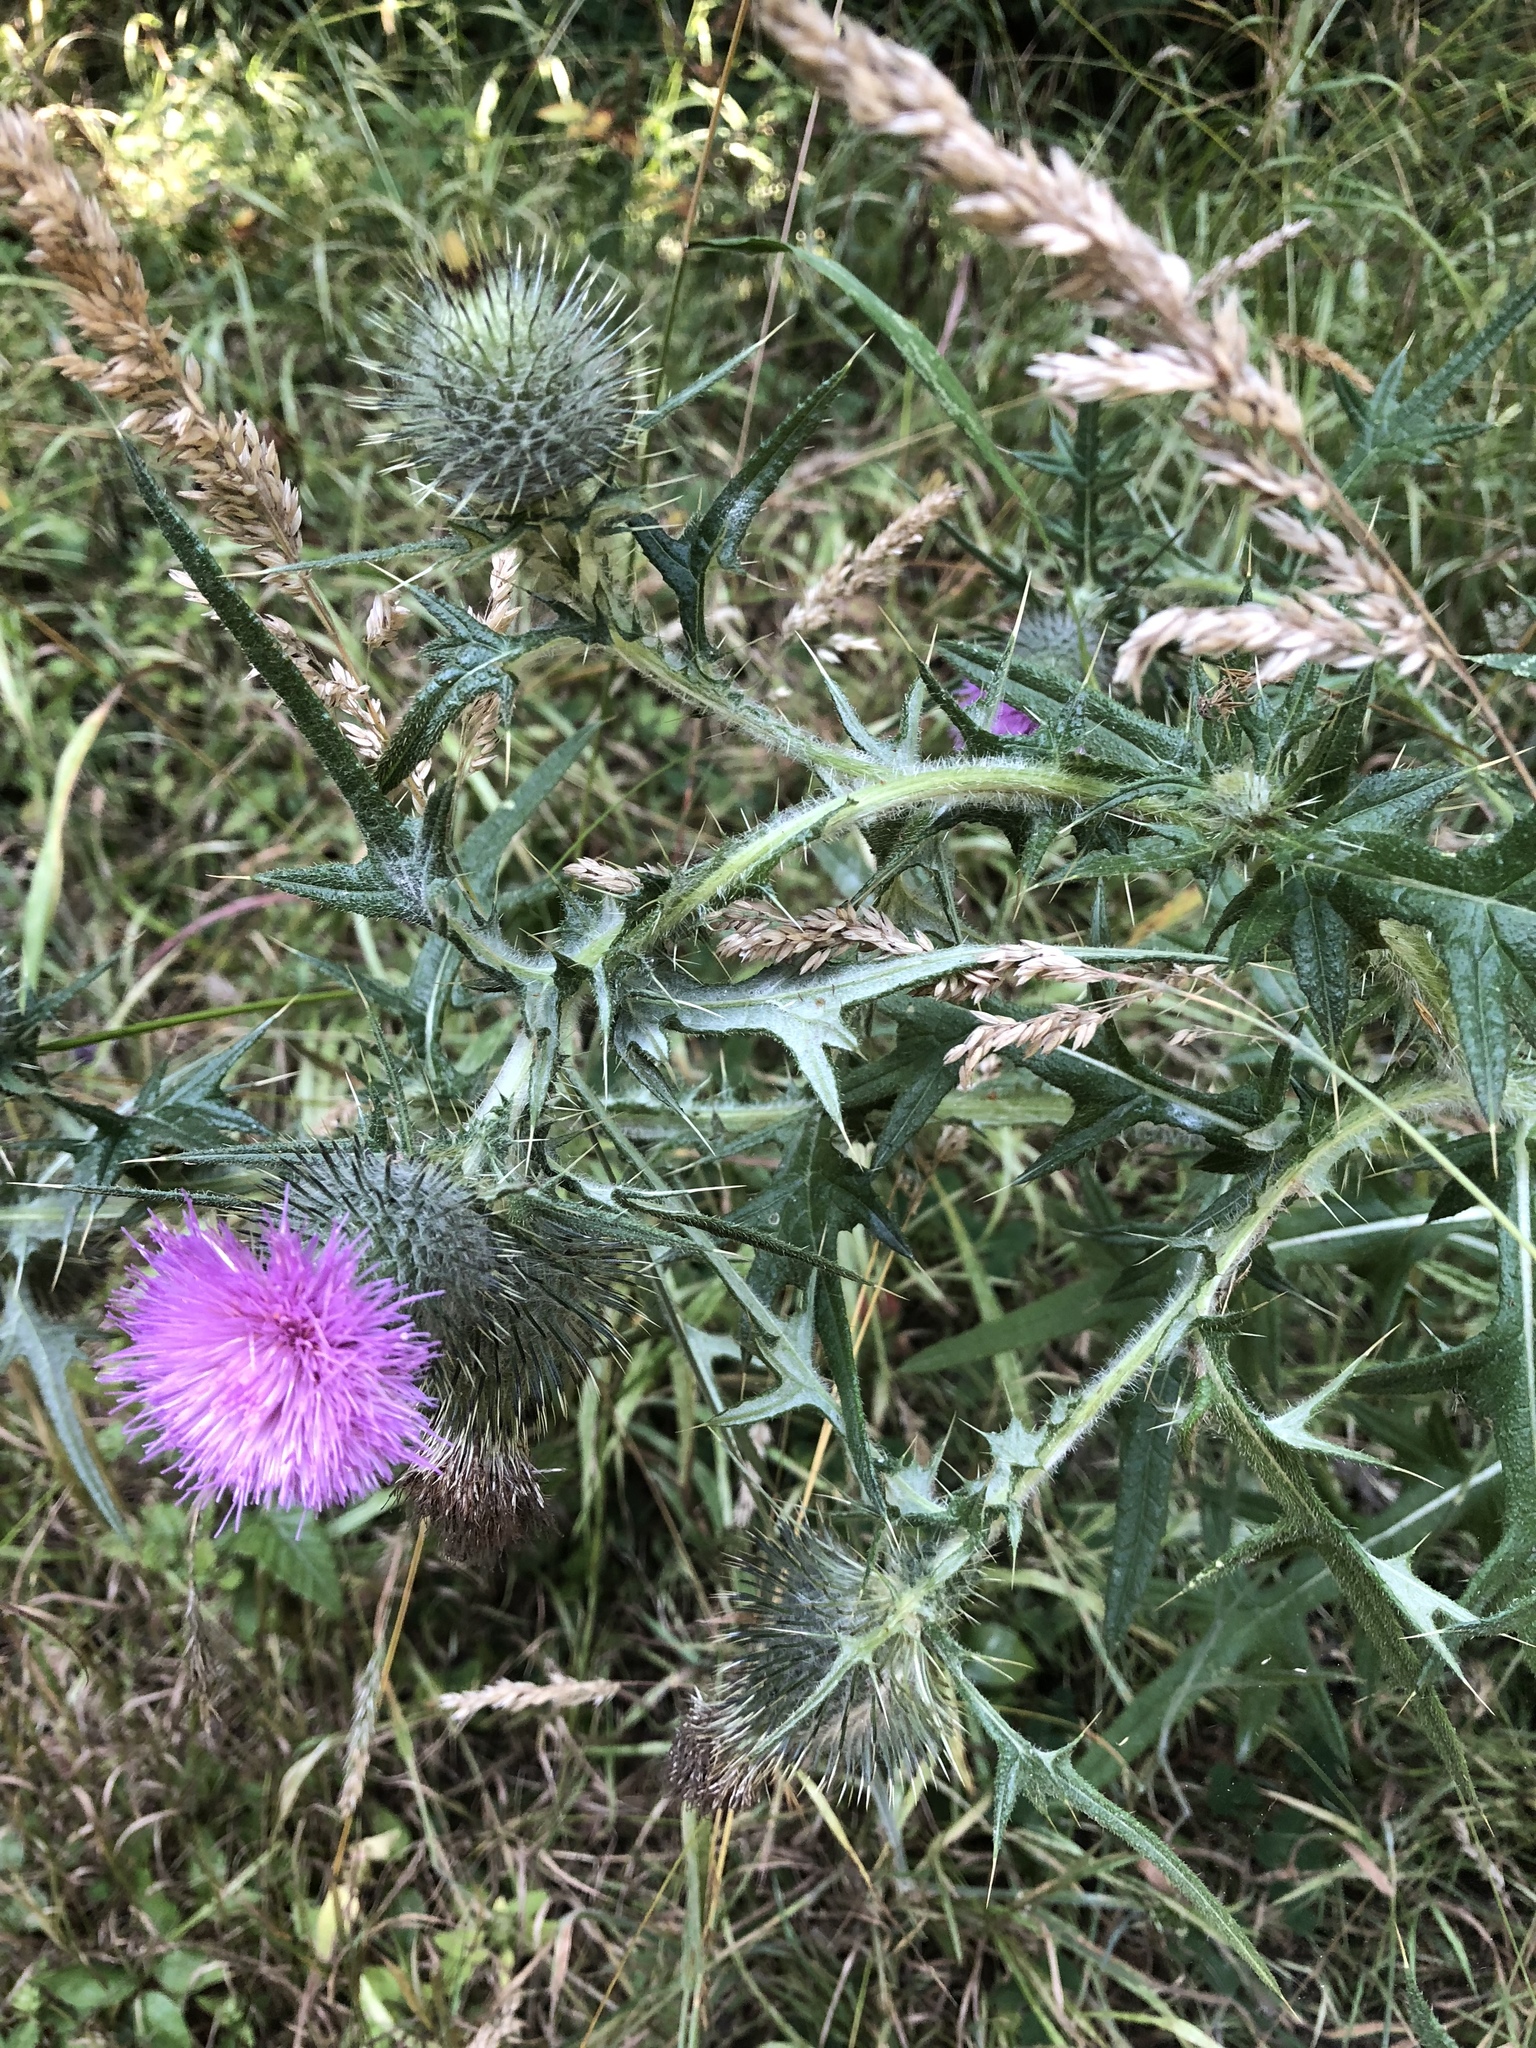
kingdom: Plantae
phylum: Tracheophyta
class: Magnoliopsida
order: Asterales
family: Asteraceae
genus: Cirsium
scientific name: Cirsium vulgare
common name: Bull thistle
